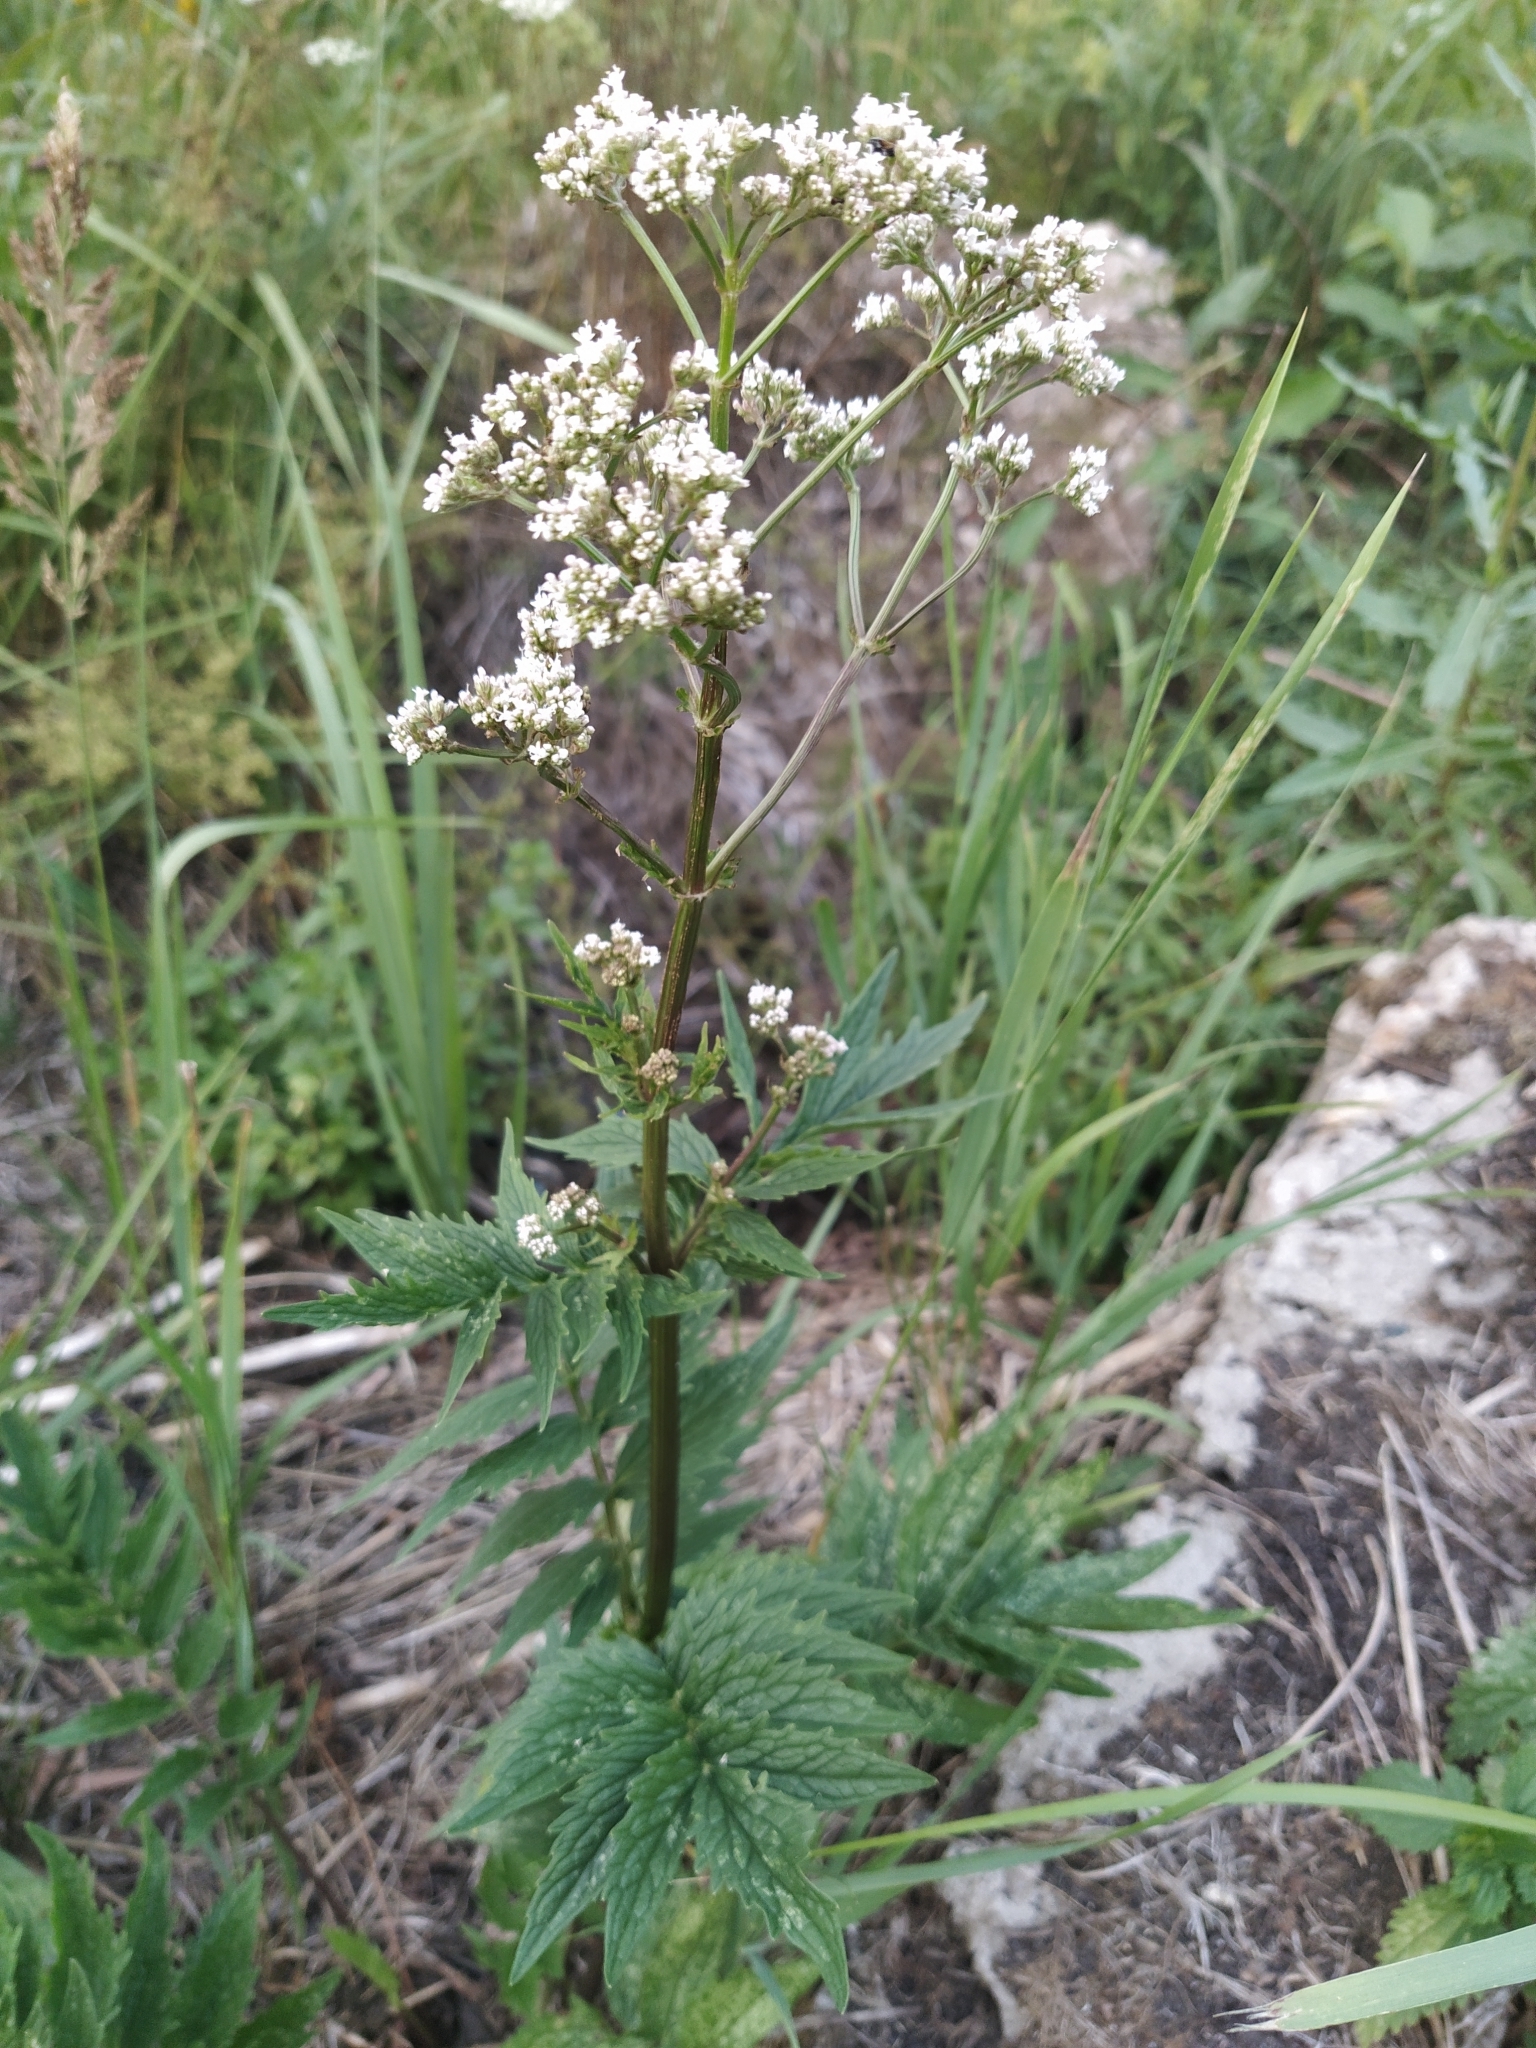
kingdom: Plantae
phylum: Tracheophyta
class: Magnoliopsida
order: Dipsacales
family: Caprifoliaceae
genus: Valeriana
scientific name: Valeriana officinalis
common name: Common valerian
